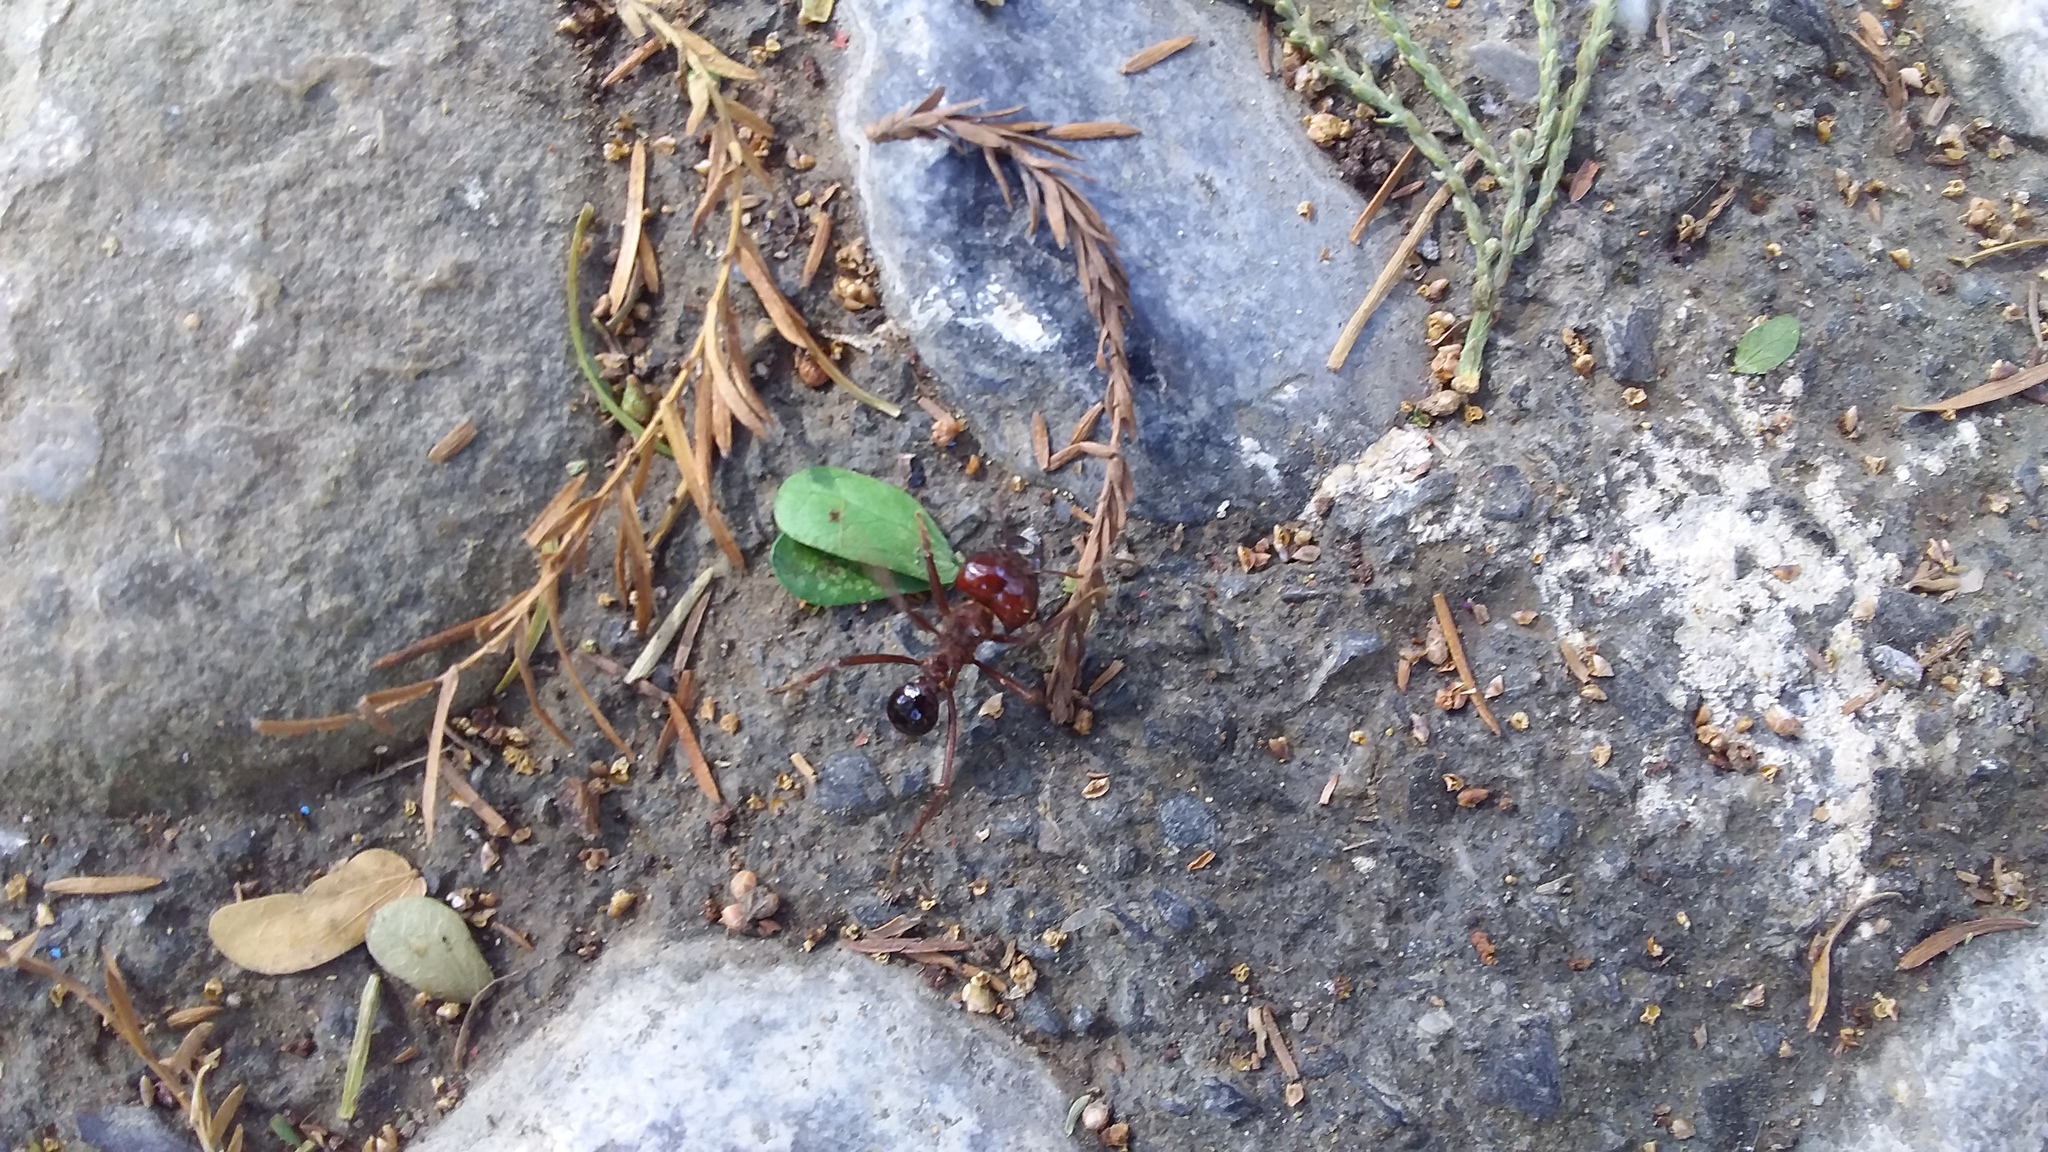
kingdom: Animalia
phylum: Arthropoda
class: Insecta
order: Hymenoptera
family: Formicidae
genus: Atta
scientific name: Atta mexicana
